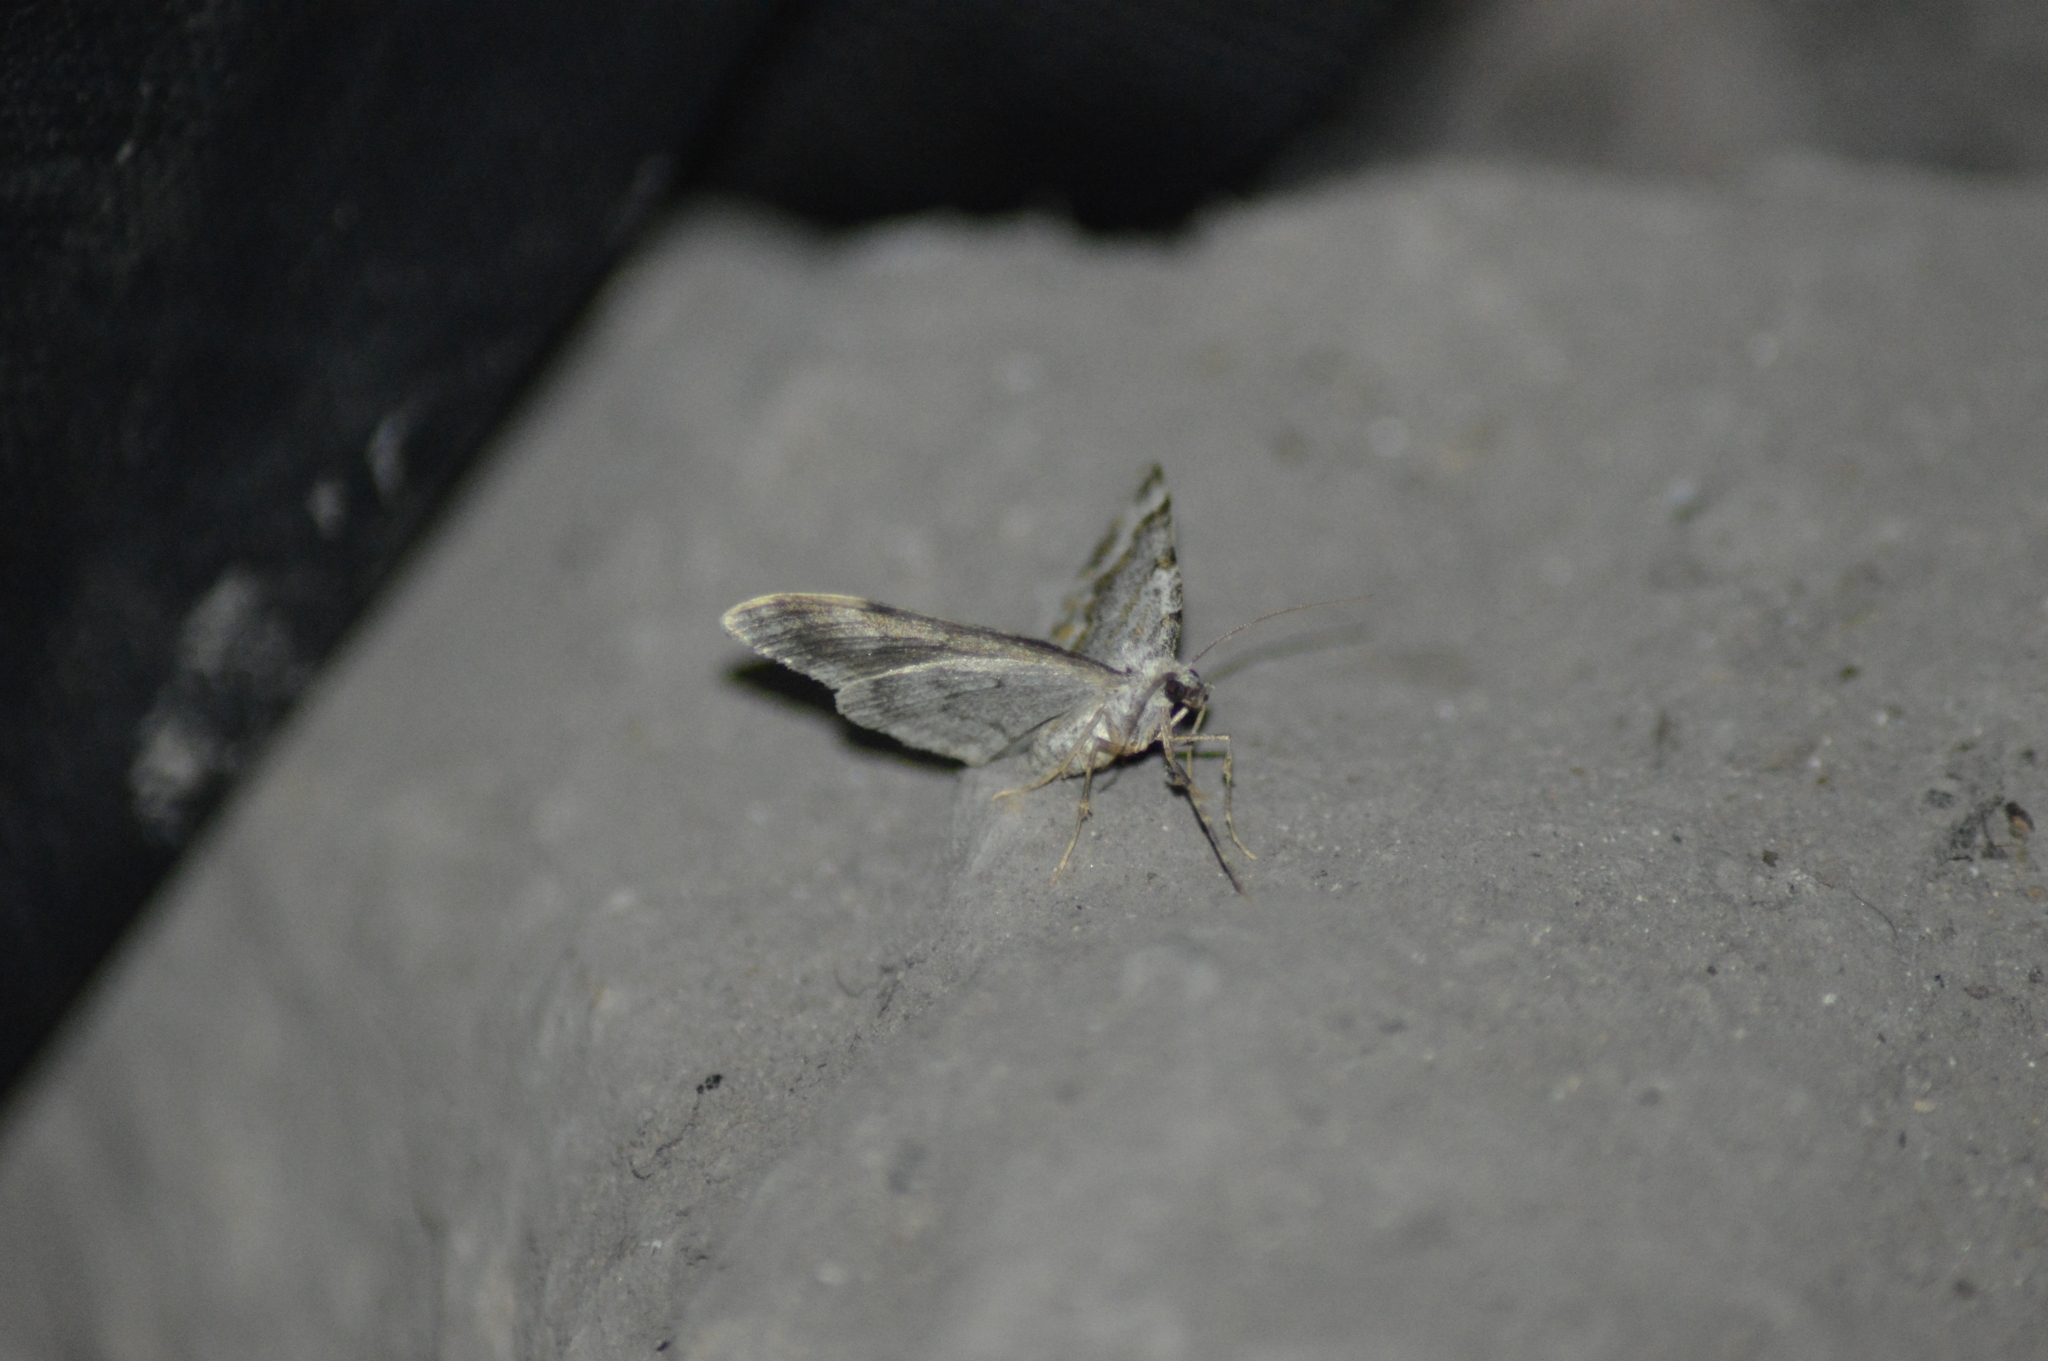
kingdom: Animalia
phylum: Arthropoda
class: Insecta
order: Lepidoptera
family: Geometridae
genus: Nebula
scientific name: Nebula tophaceata
